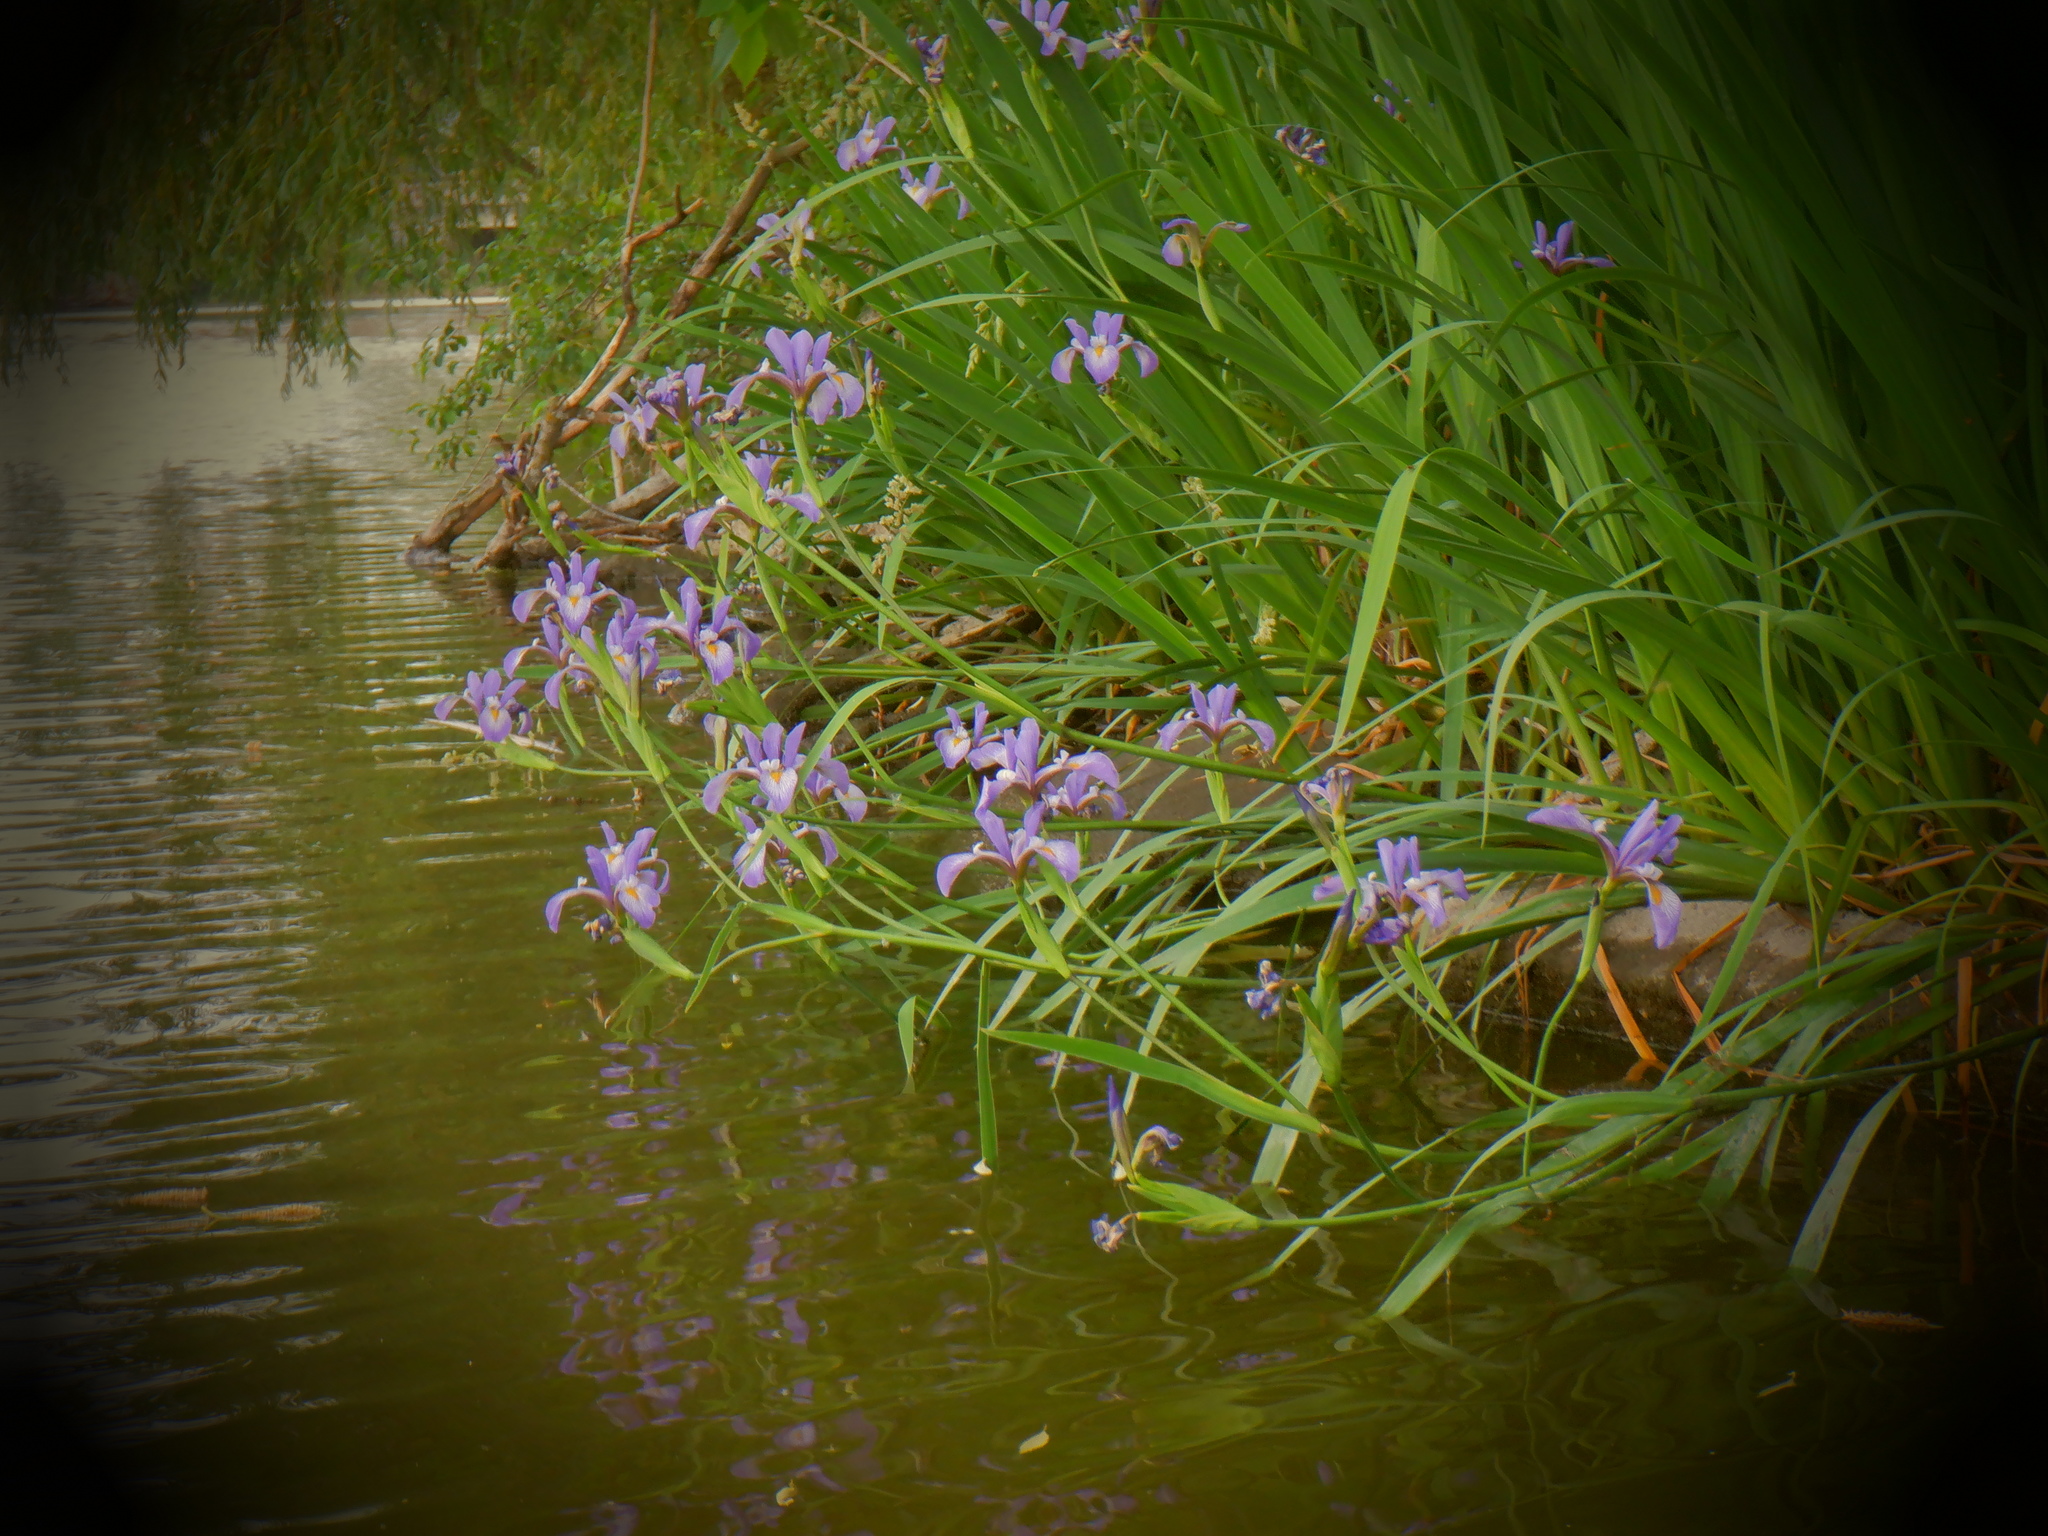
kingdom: Plantae
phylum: Tracheophyta
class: Liliopsida
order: Asparagales
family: Iridaceae
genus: Iris
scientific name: Iris virginica
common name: Southern blue flag
